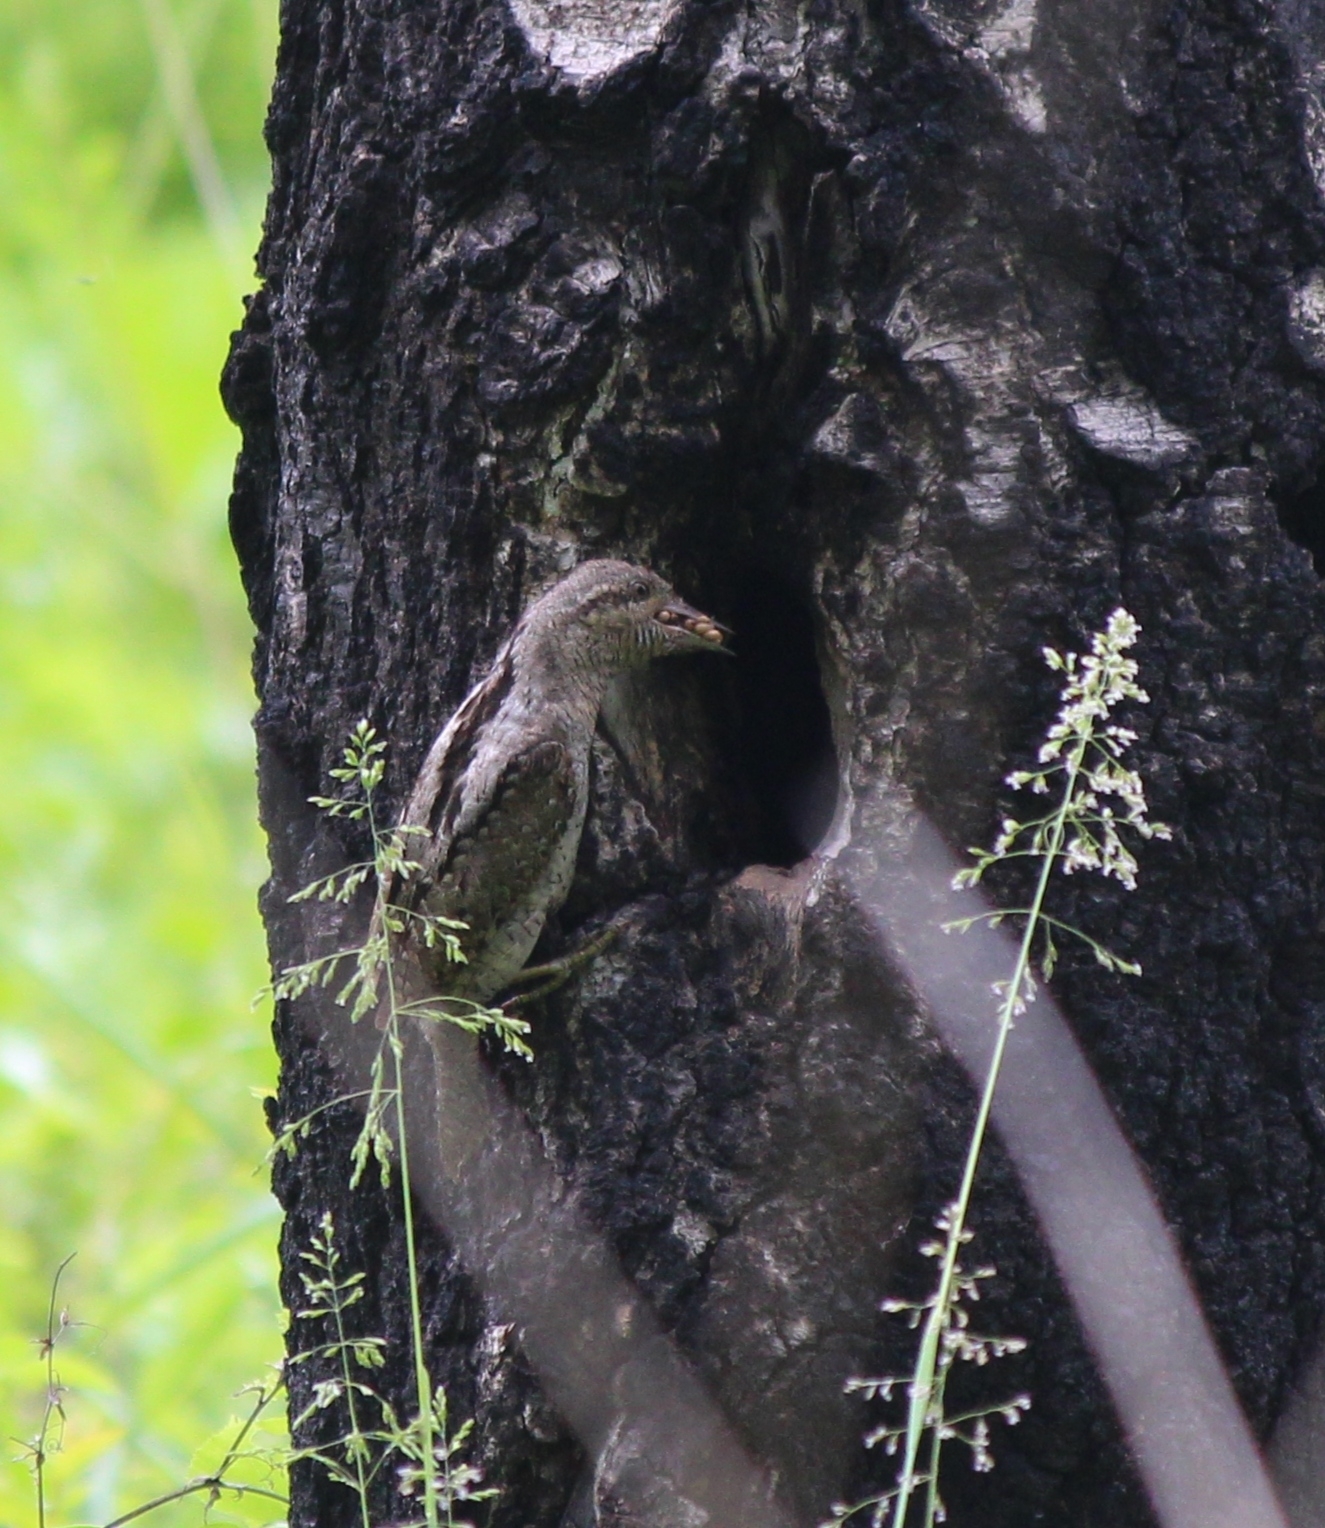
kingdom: Animalia
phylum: Chordata
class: Aves
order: Piciformes
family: Picidae
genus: Jynx
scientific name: Jynx torquilla
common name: Eurasian wryneck
